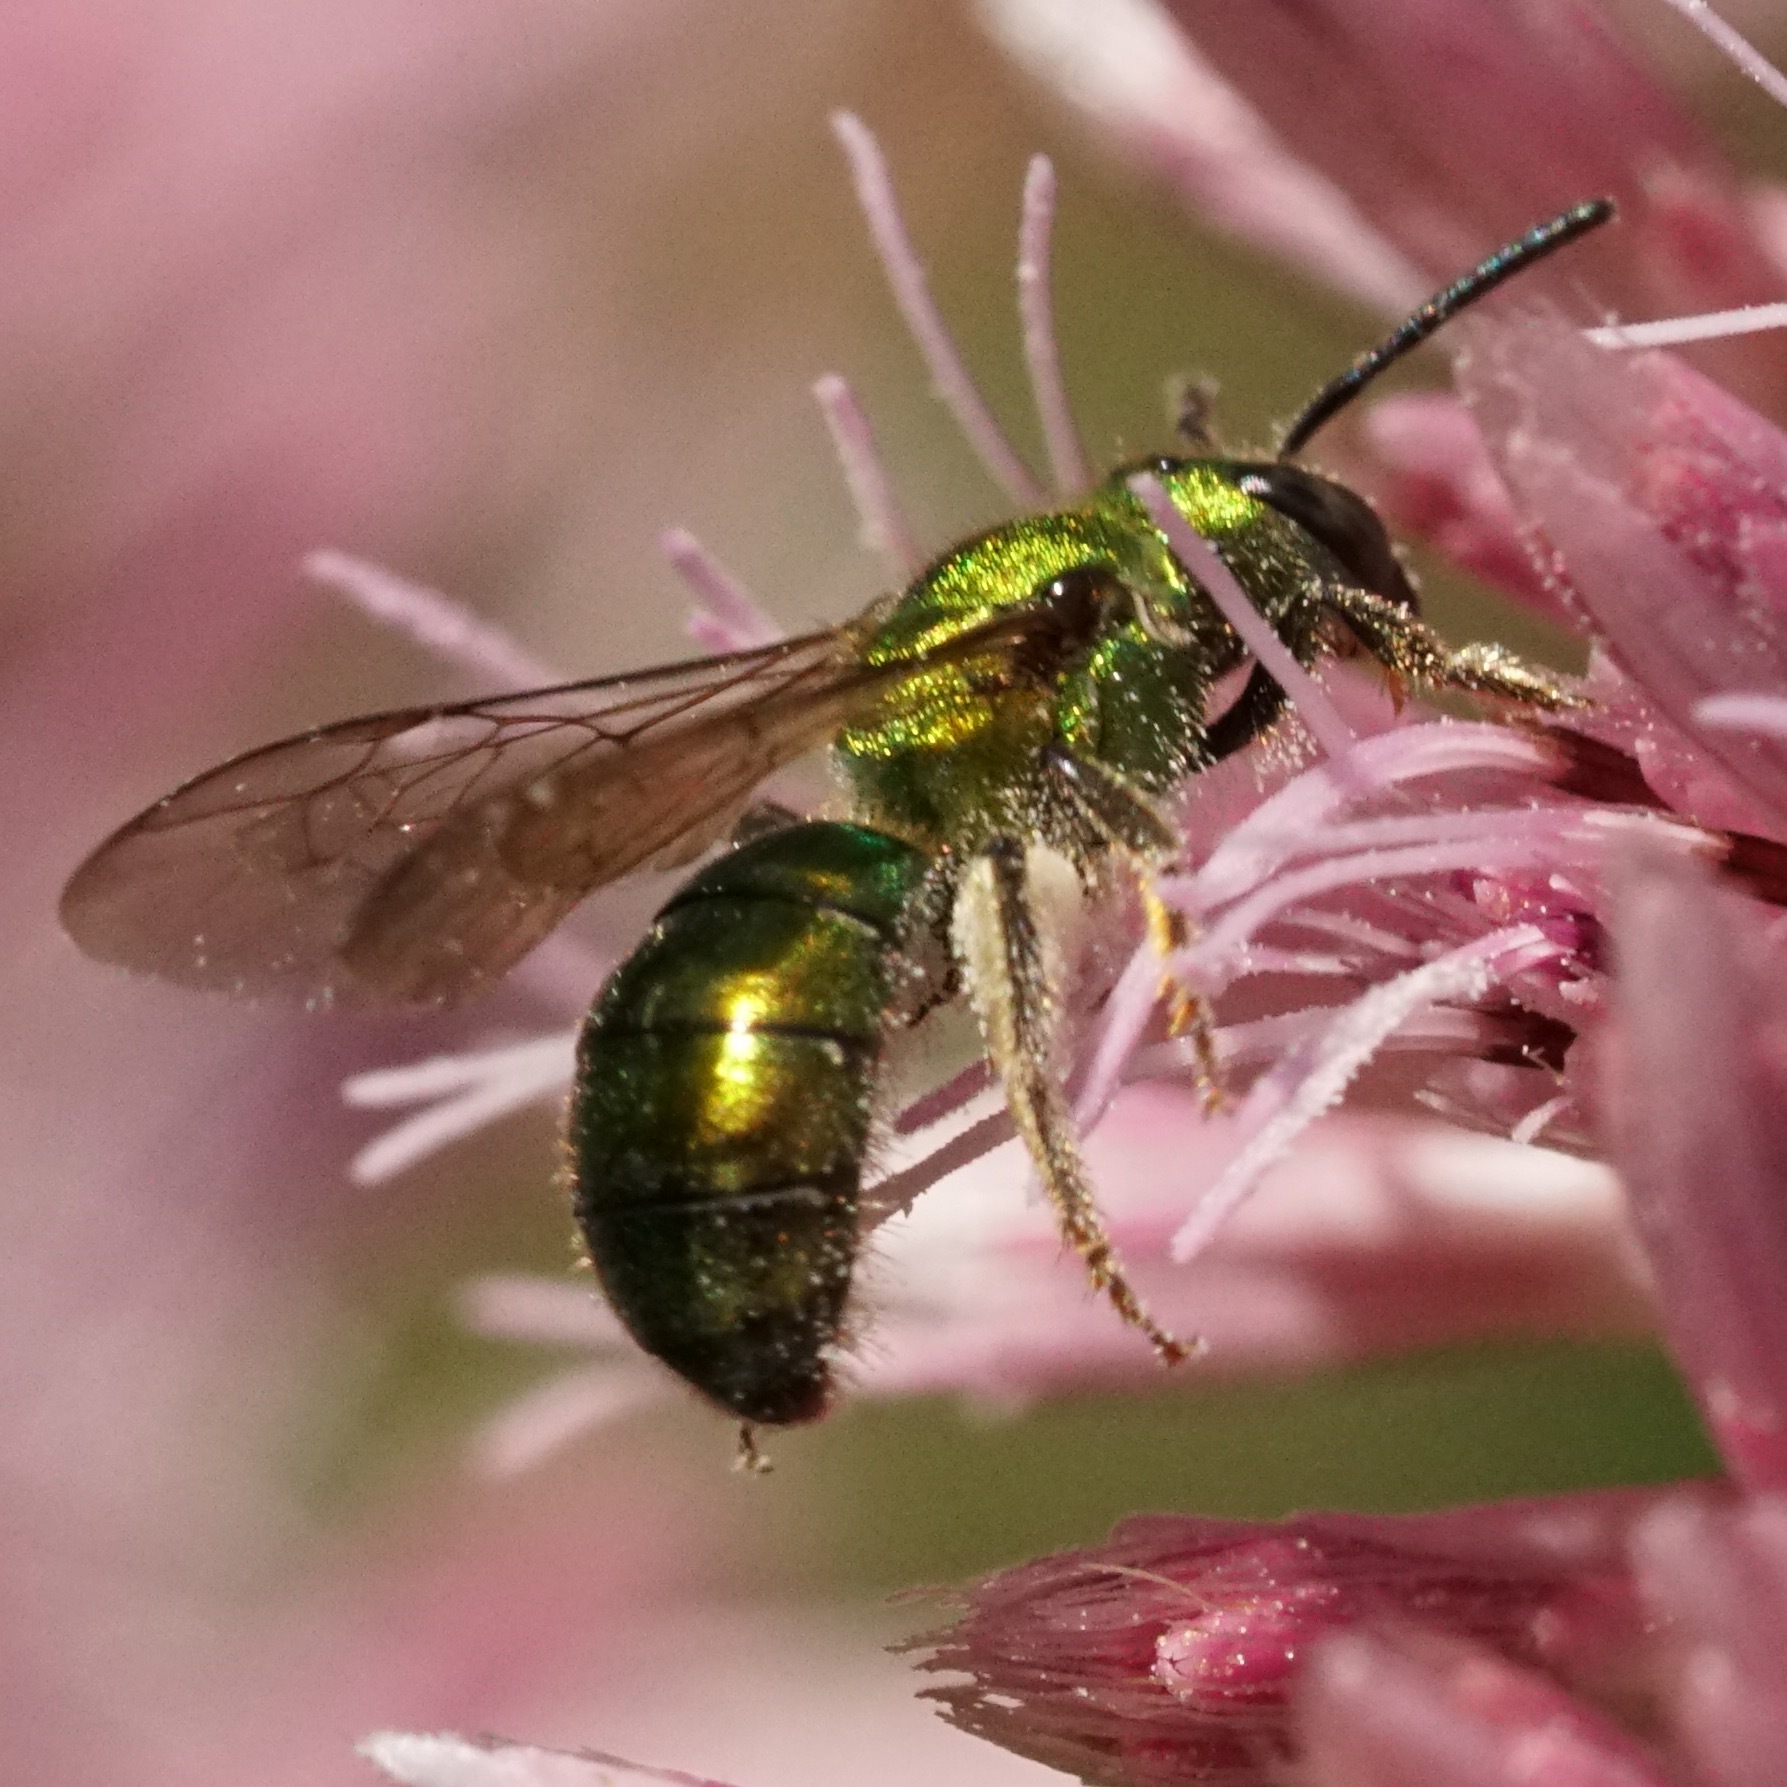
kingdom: Animalia
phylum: Arthropoda
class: Insecta
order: Hymenoptera
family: Halictidae
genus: Augochlora
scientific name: Augochlora pura
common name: Pure green sweat bee
